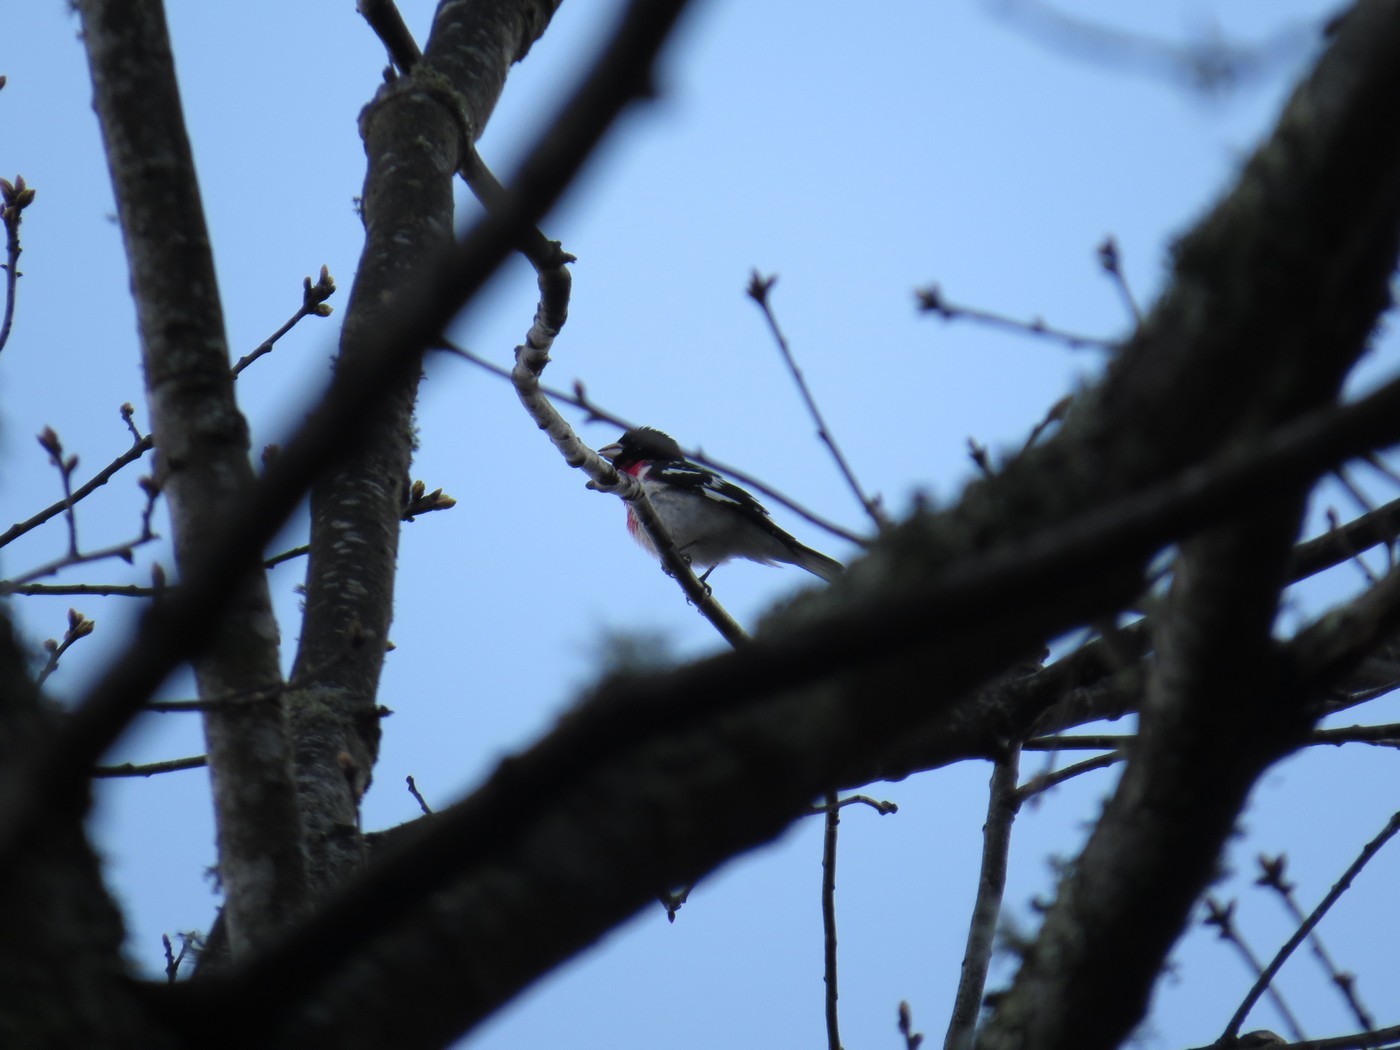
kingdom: Animalia
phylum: Chordata
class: Aves
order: Passeriformes
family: Cardinalidae
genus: Pheucticus
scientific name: Pheucticus ludovicianus
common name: Rose-breasted grosbeak
